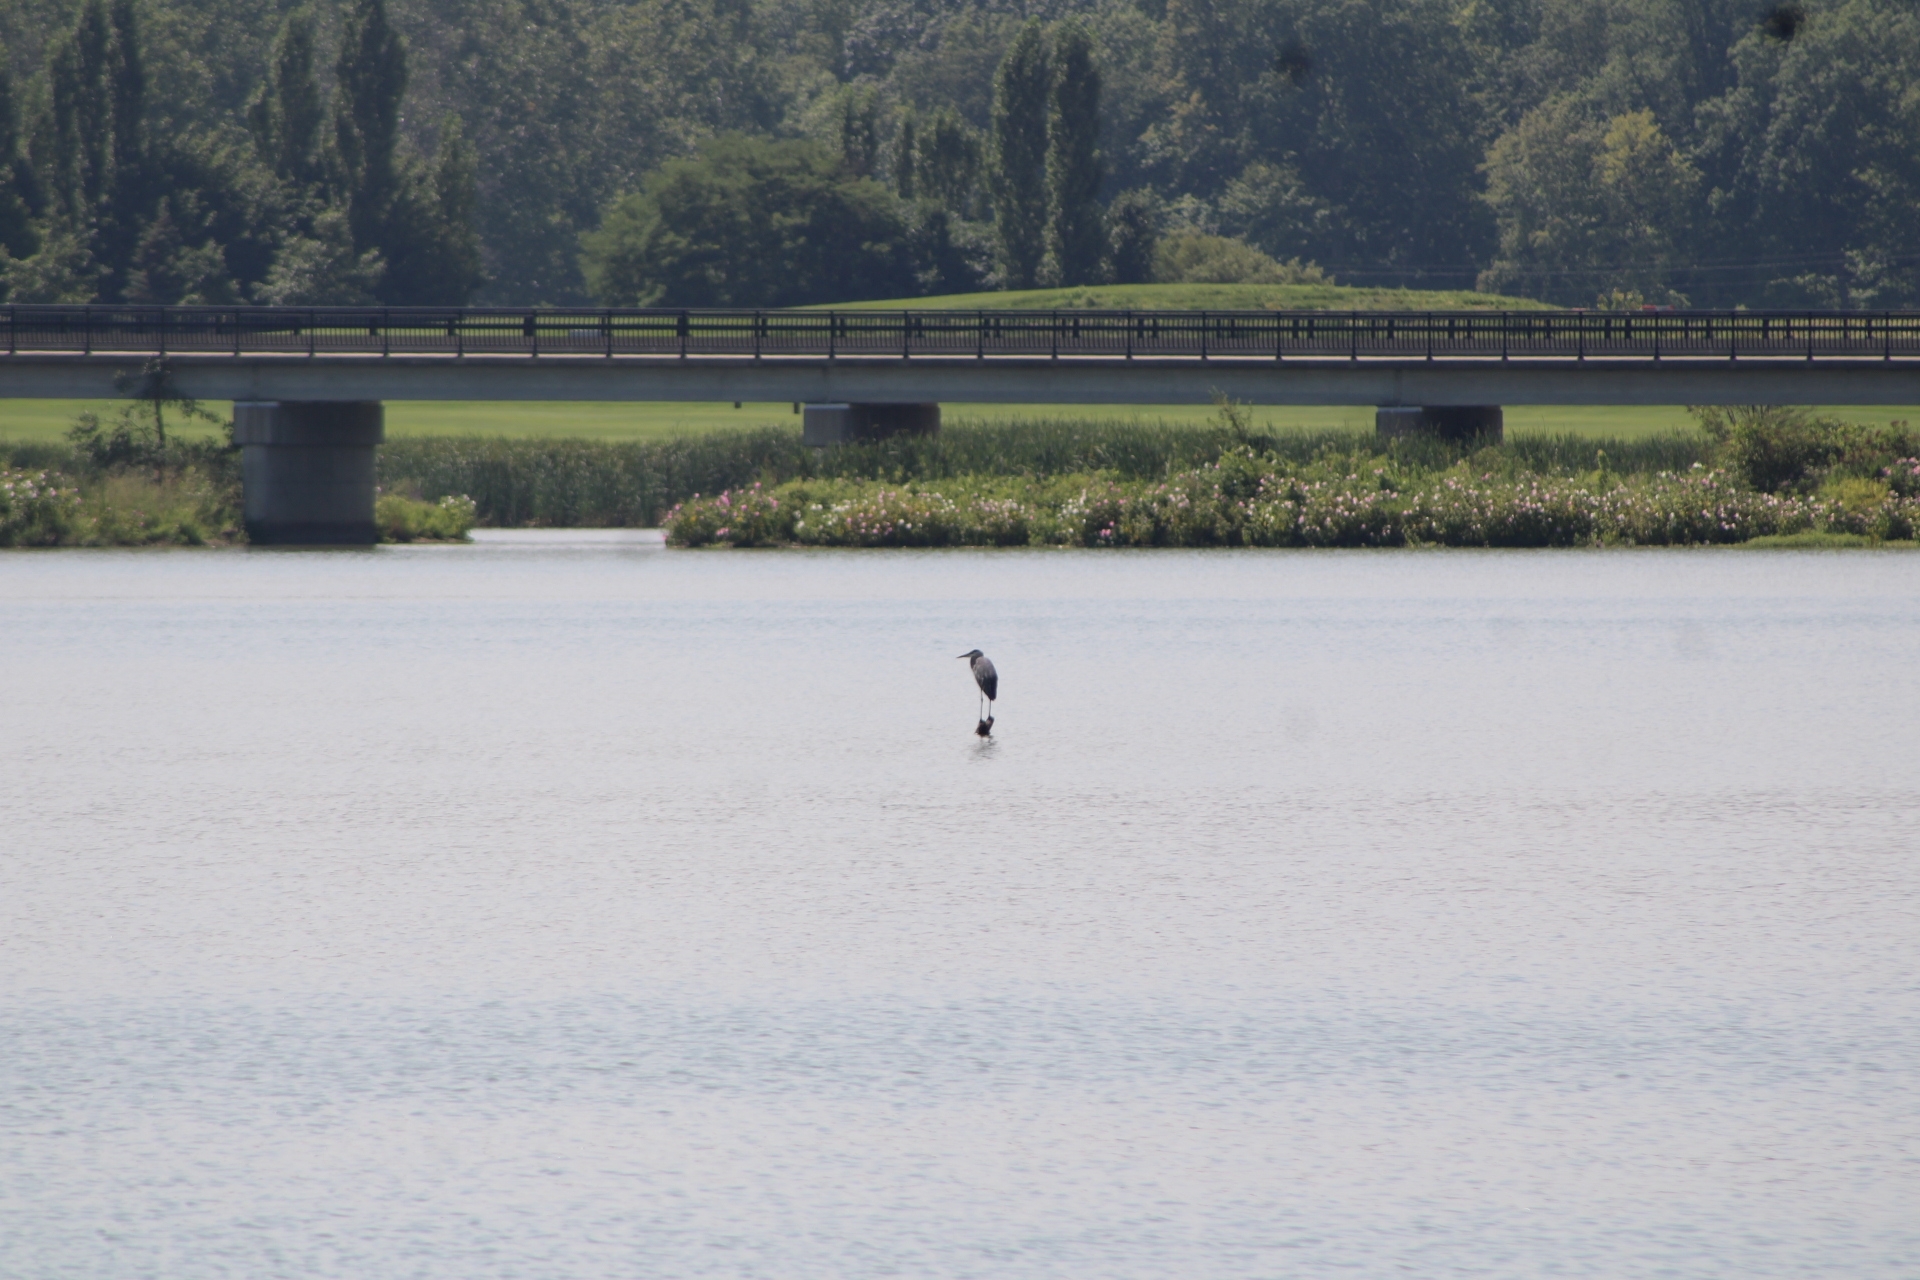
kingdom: Animalia
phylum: Chordata
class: Aves
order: Pelecaniformes
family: Ardeidae
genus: Ardea
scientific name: Ardea herodias
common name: Great blue heron
